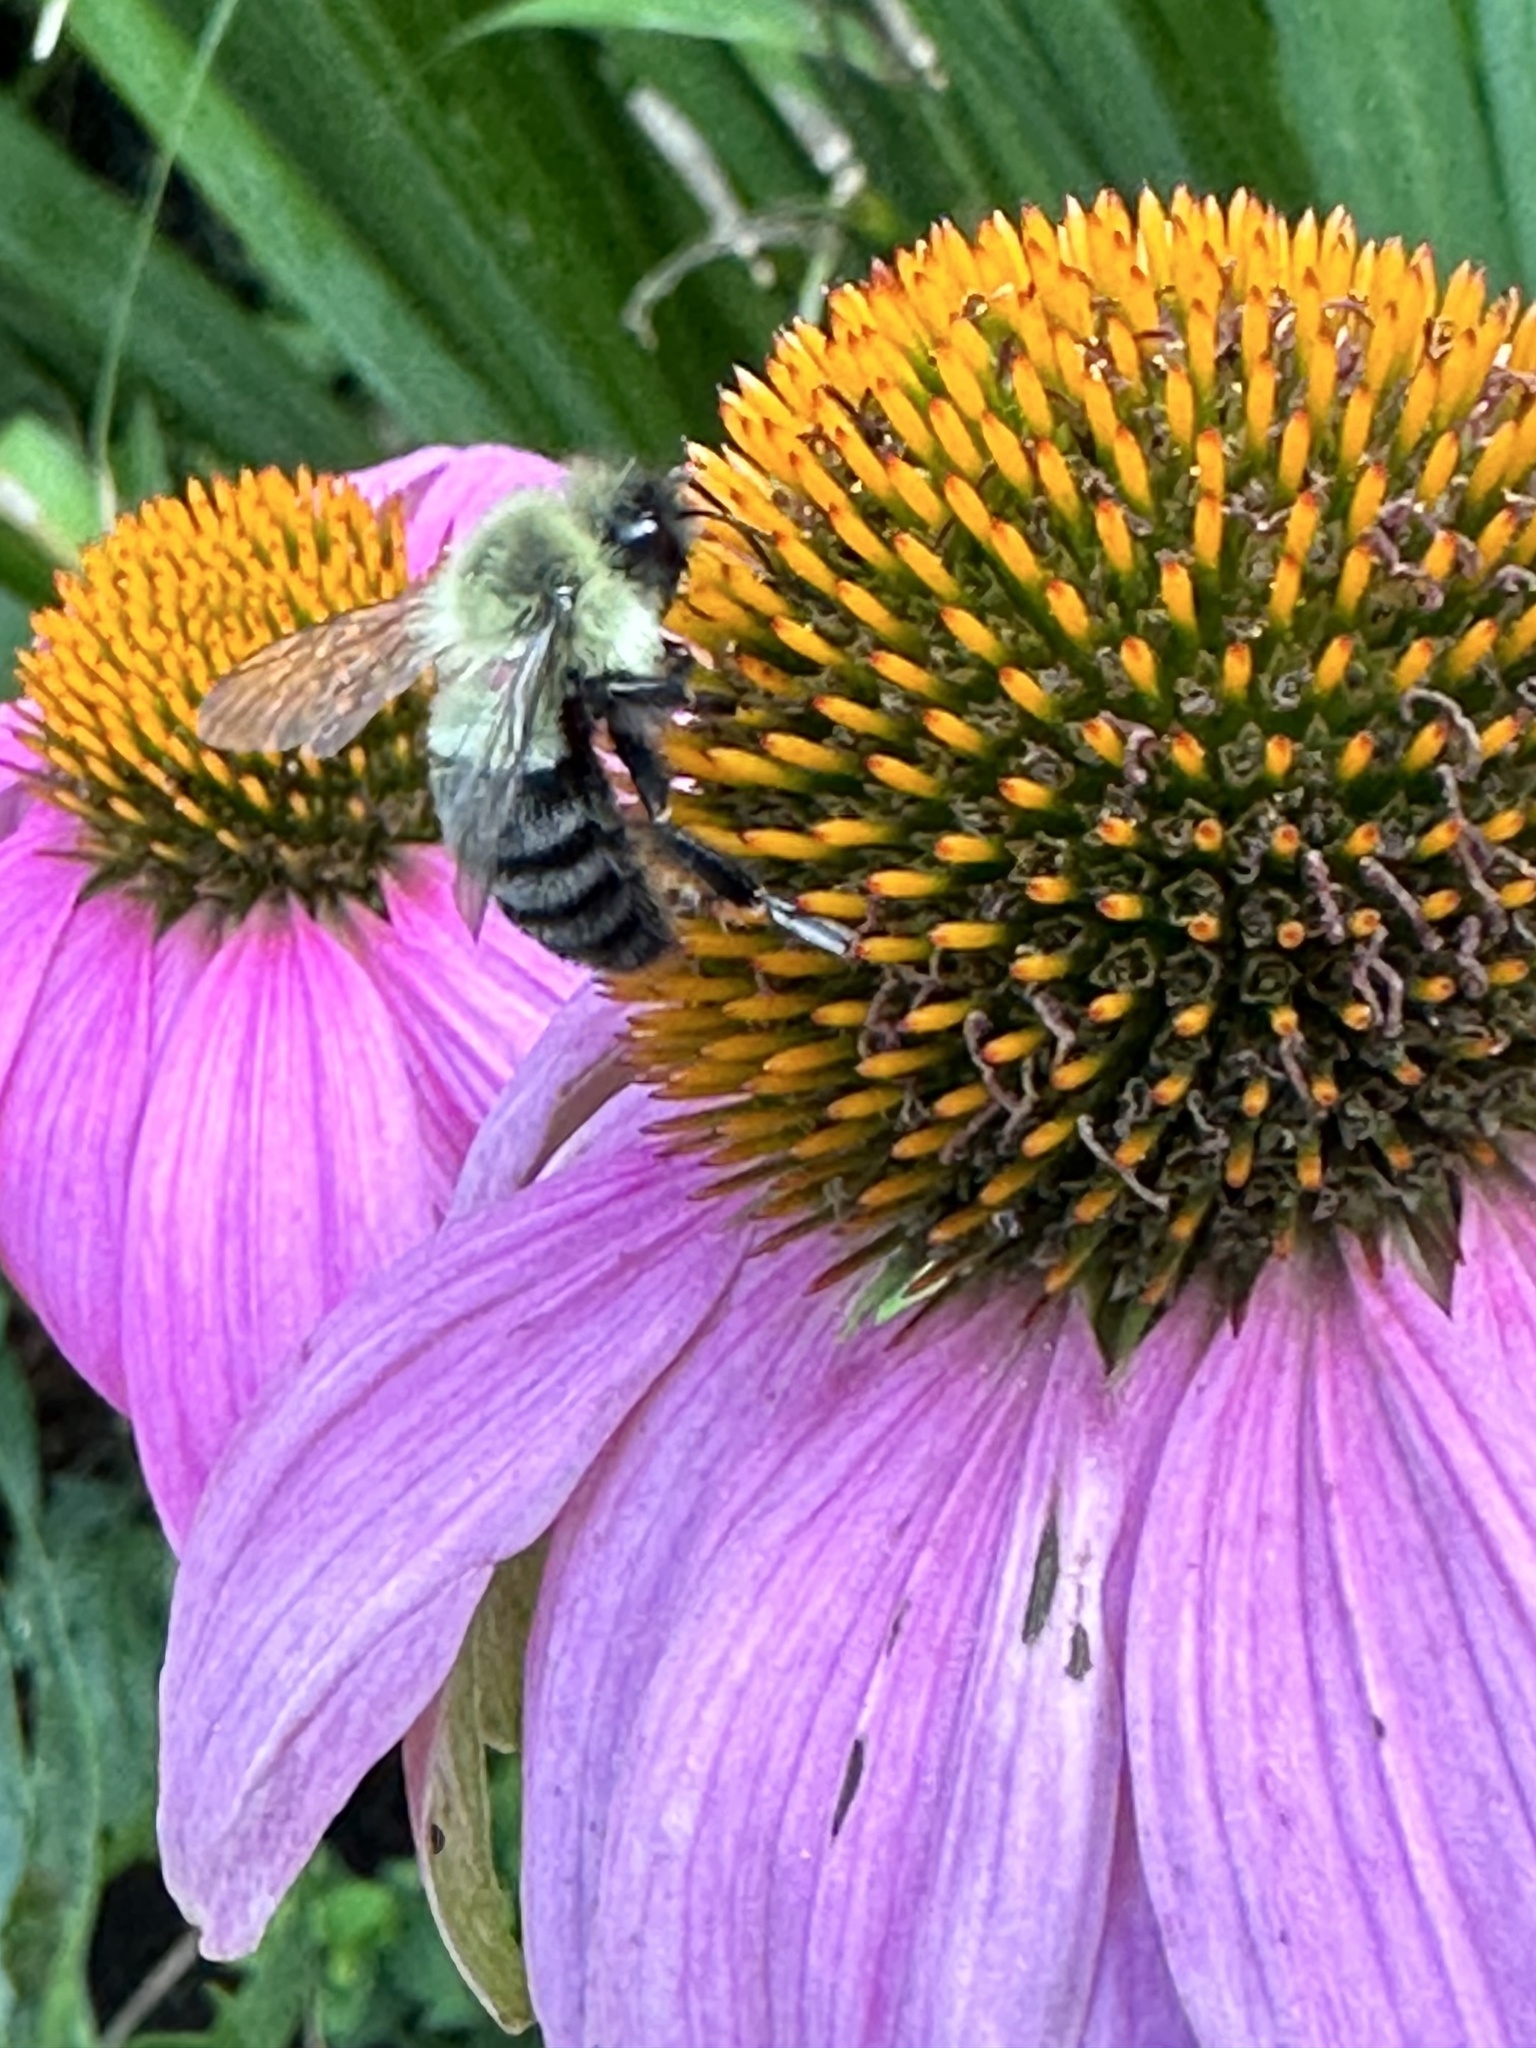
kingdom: Animalia
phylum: Arthropoda
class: Insecta
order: Hymenoptera
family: Apidae
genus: Bombus
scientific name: Bombus impatiens
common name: Common eastern bumble bee
